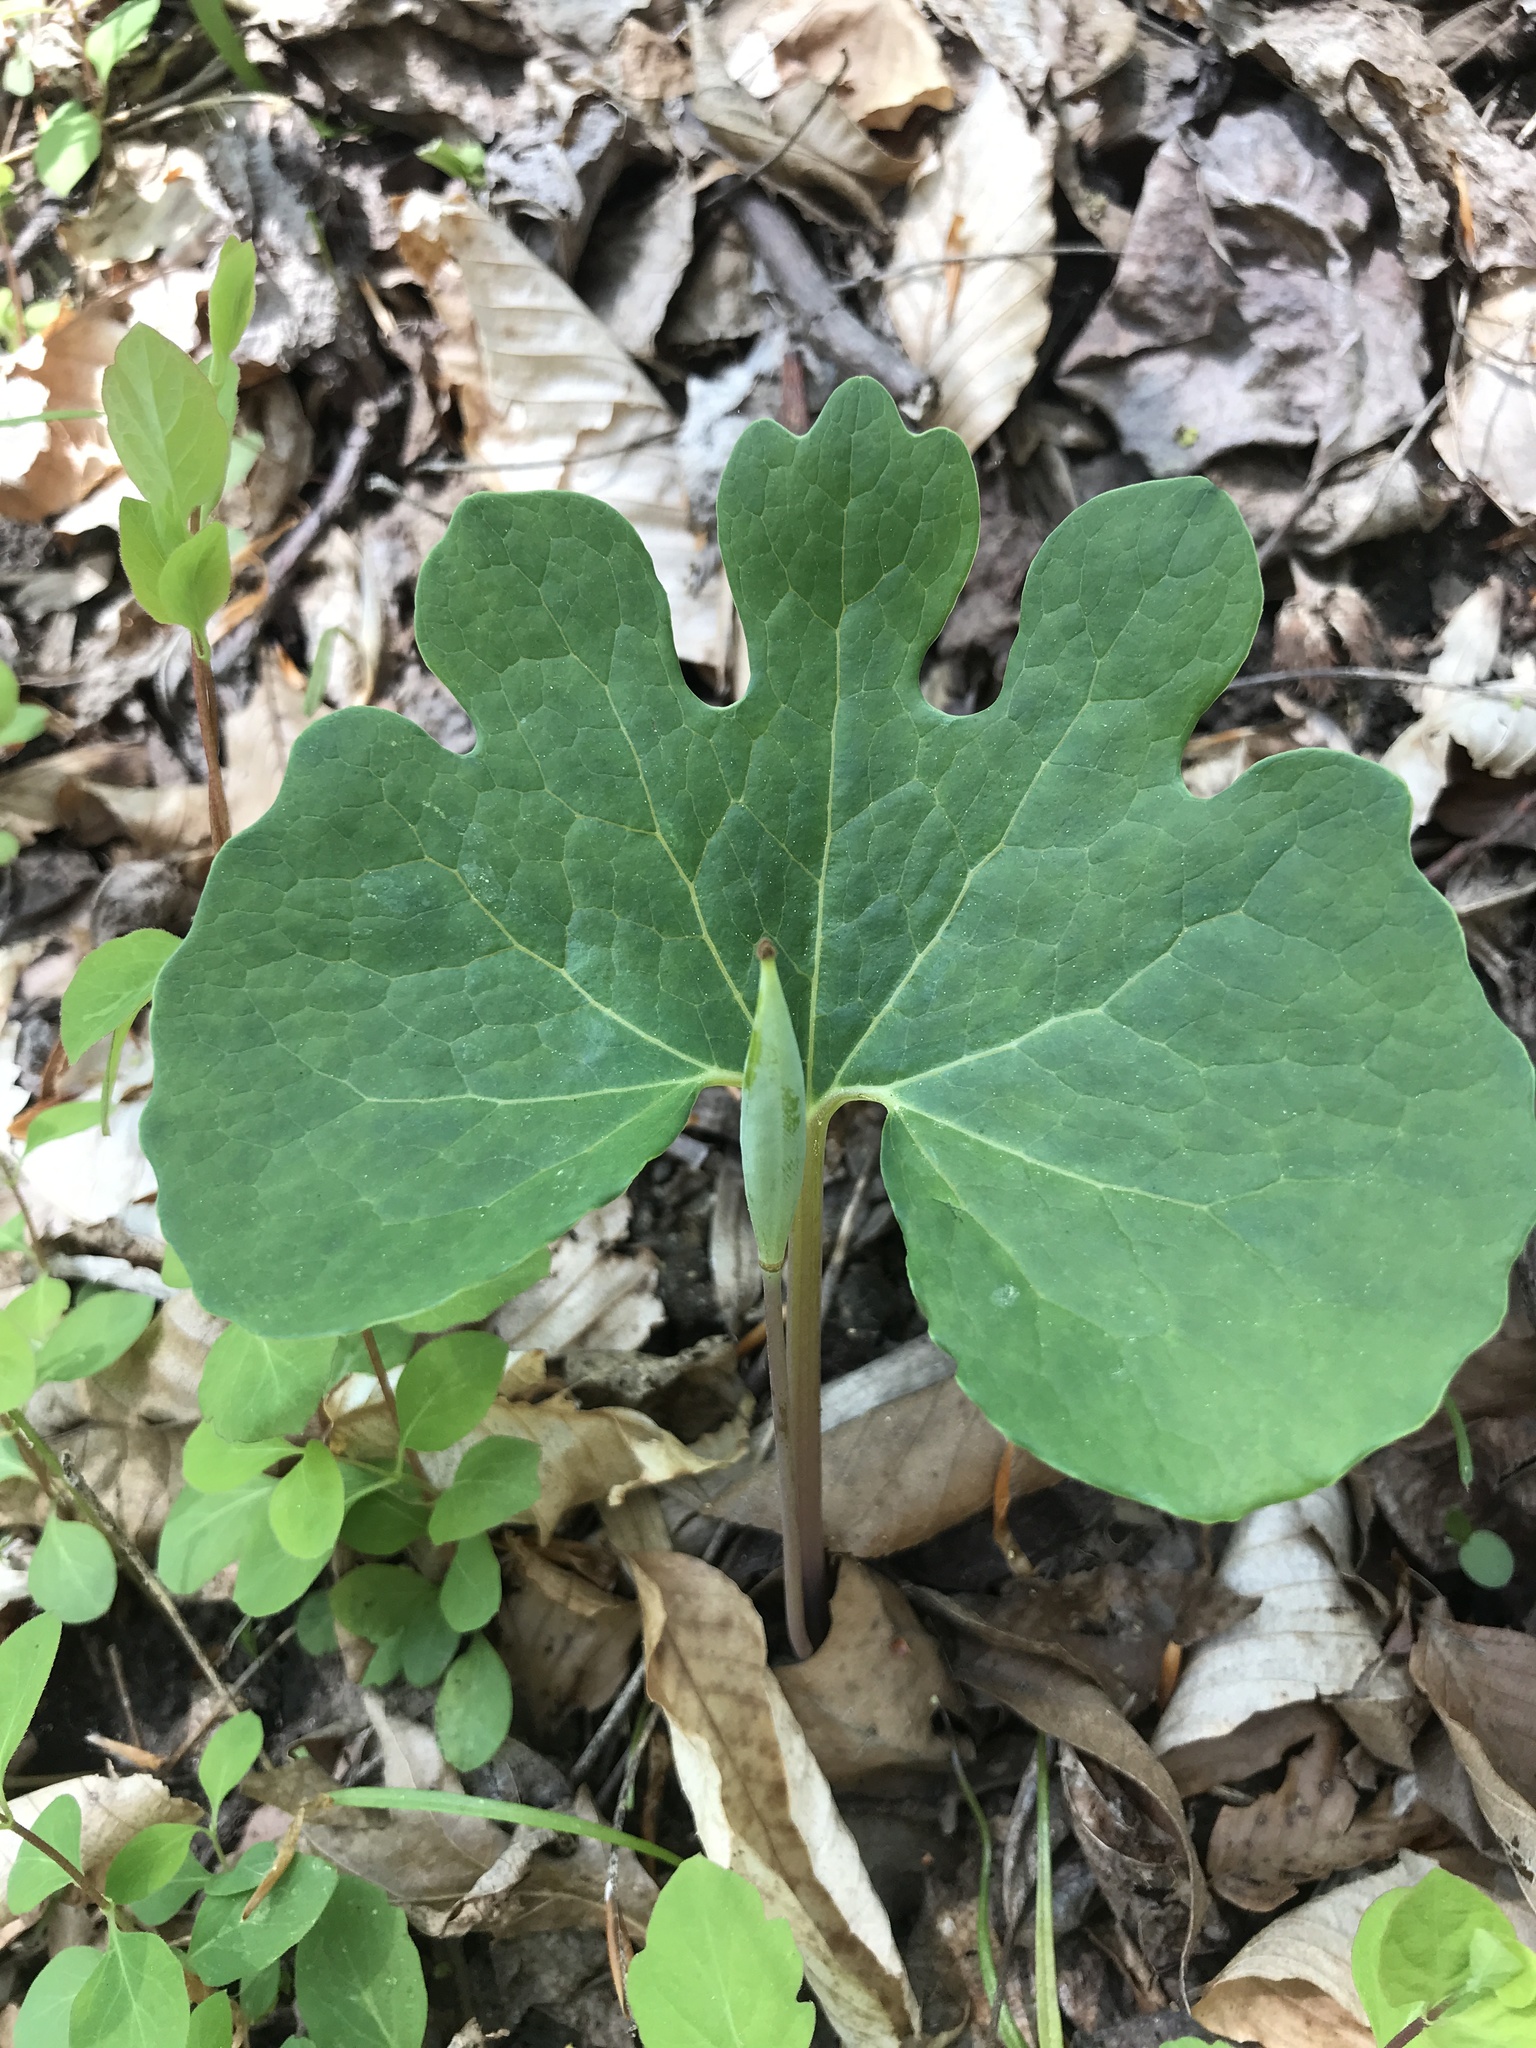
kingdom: Plantae
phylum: Tracheophyta
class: Magnoliopsida
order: Ranunculales
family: Papaveraceae
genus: Sanguinaria
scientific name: Sanguinaria canadensis
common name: Bloodroot
